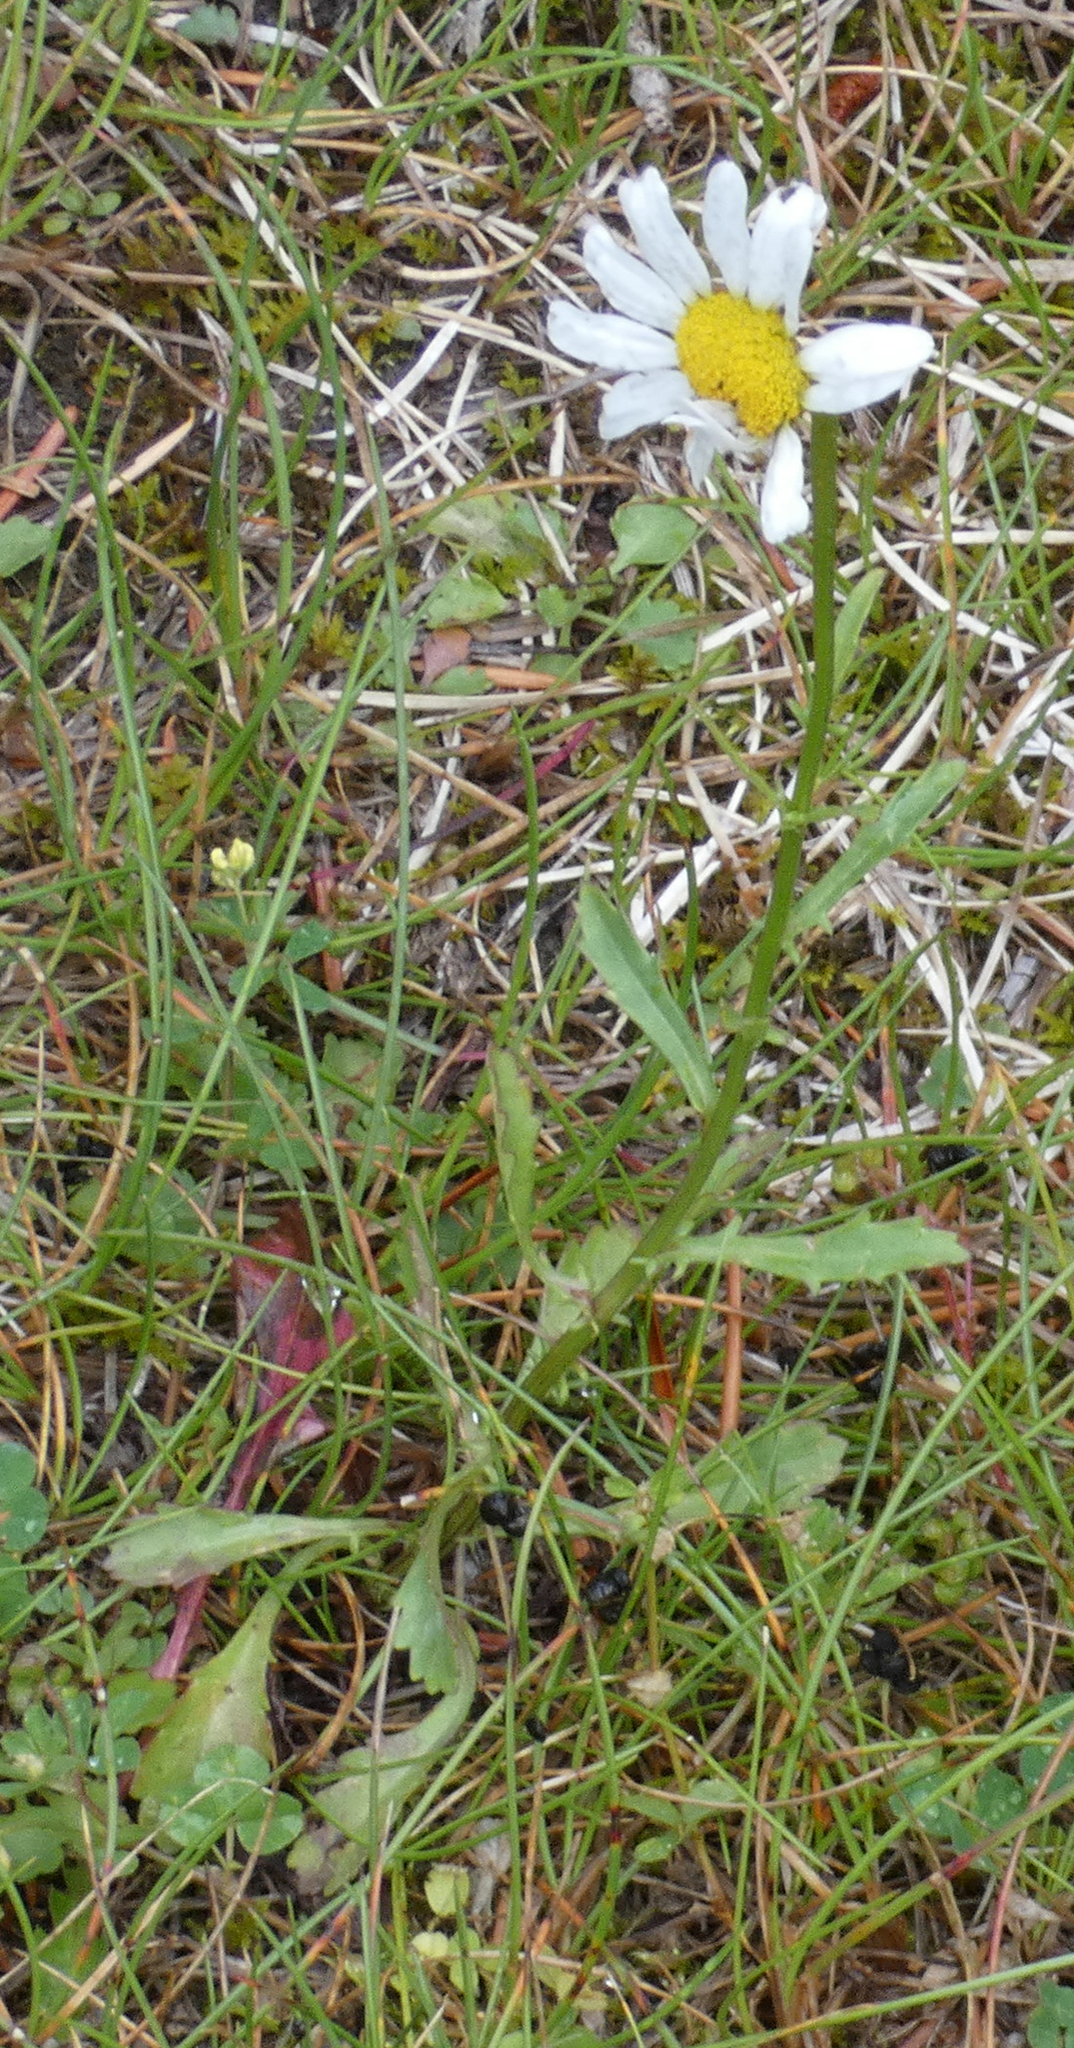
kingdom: Plantae
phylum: Tracheophyta
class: Magnoliopsida
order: Asterales
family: Asteraceae
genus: Leucanthemum
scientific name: Leucanthemum vulgare
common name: Oxeye daisy
